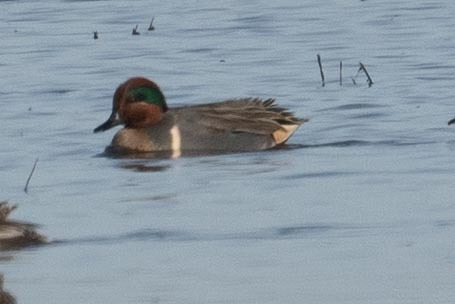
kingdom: Animalia
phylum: Chordata
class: Aves
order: Anseriformes
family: Anatidae
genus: Anas
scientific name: Anas crecca
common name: Eurasian teal
